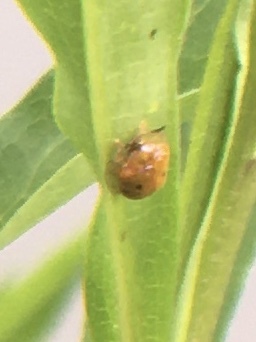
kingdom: Animalia
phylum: Arthropoda
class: Insecta
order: Coleoptera
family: Chrysomelidae
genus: Charidotella
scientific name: Charidotella sexpunctata
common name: Golden tortoise beetle
